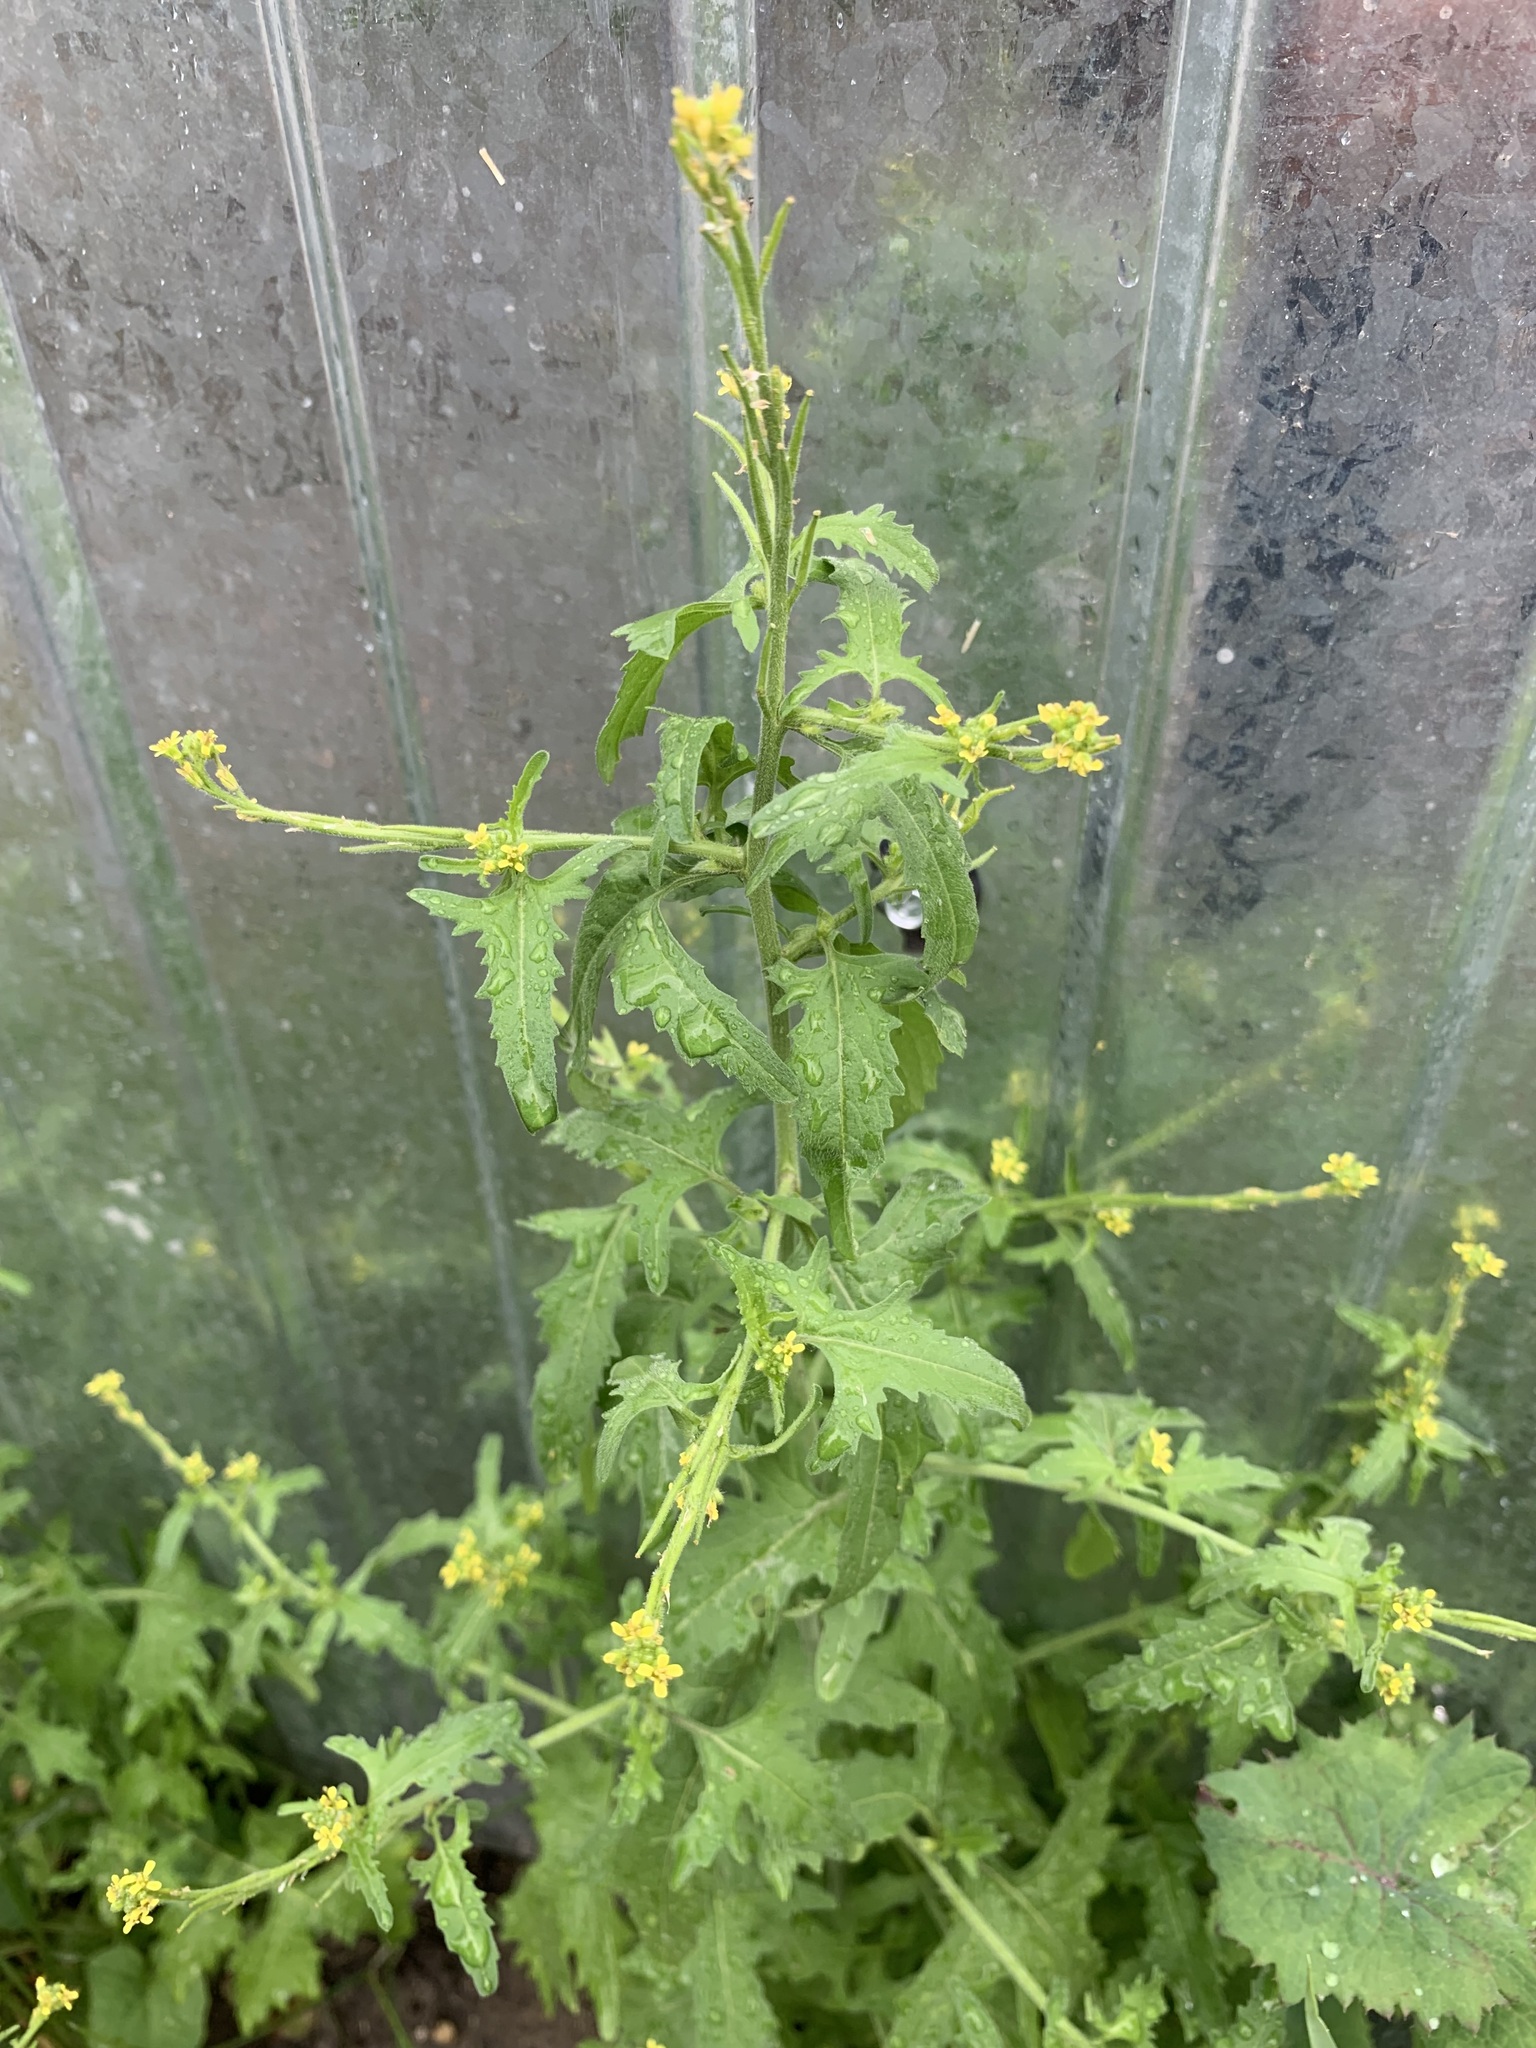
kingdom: Plantae
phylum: Tracheophyta
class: Magnoliopsida
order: Brassicales
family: Brassicaceae
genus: Sisymbrium
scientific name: Sisymbrium officinale
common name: Hedge mustard
